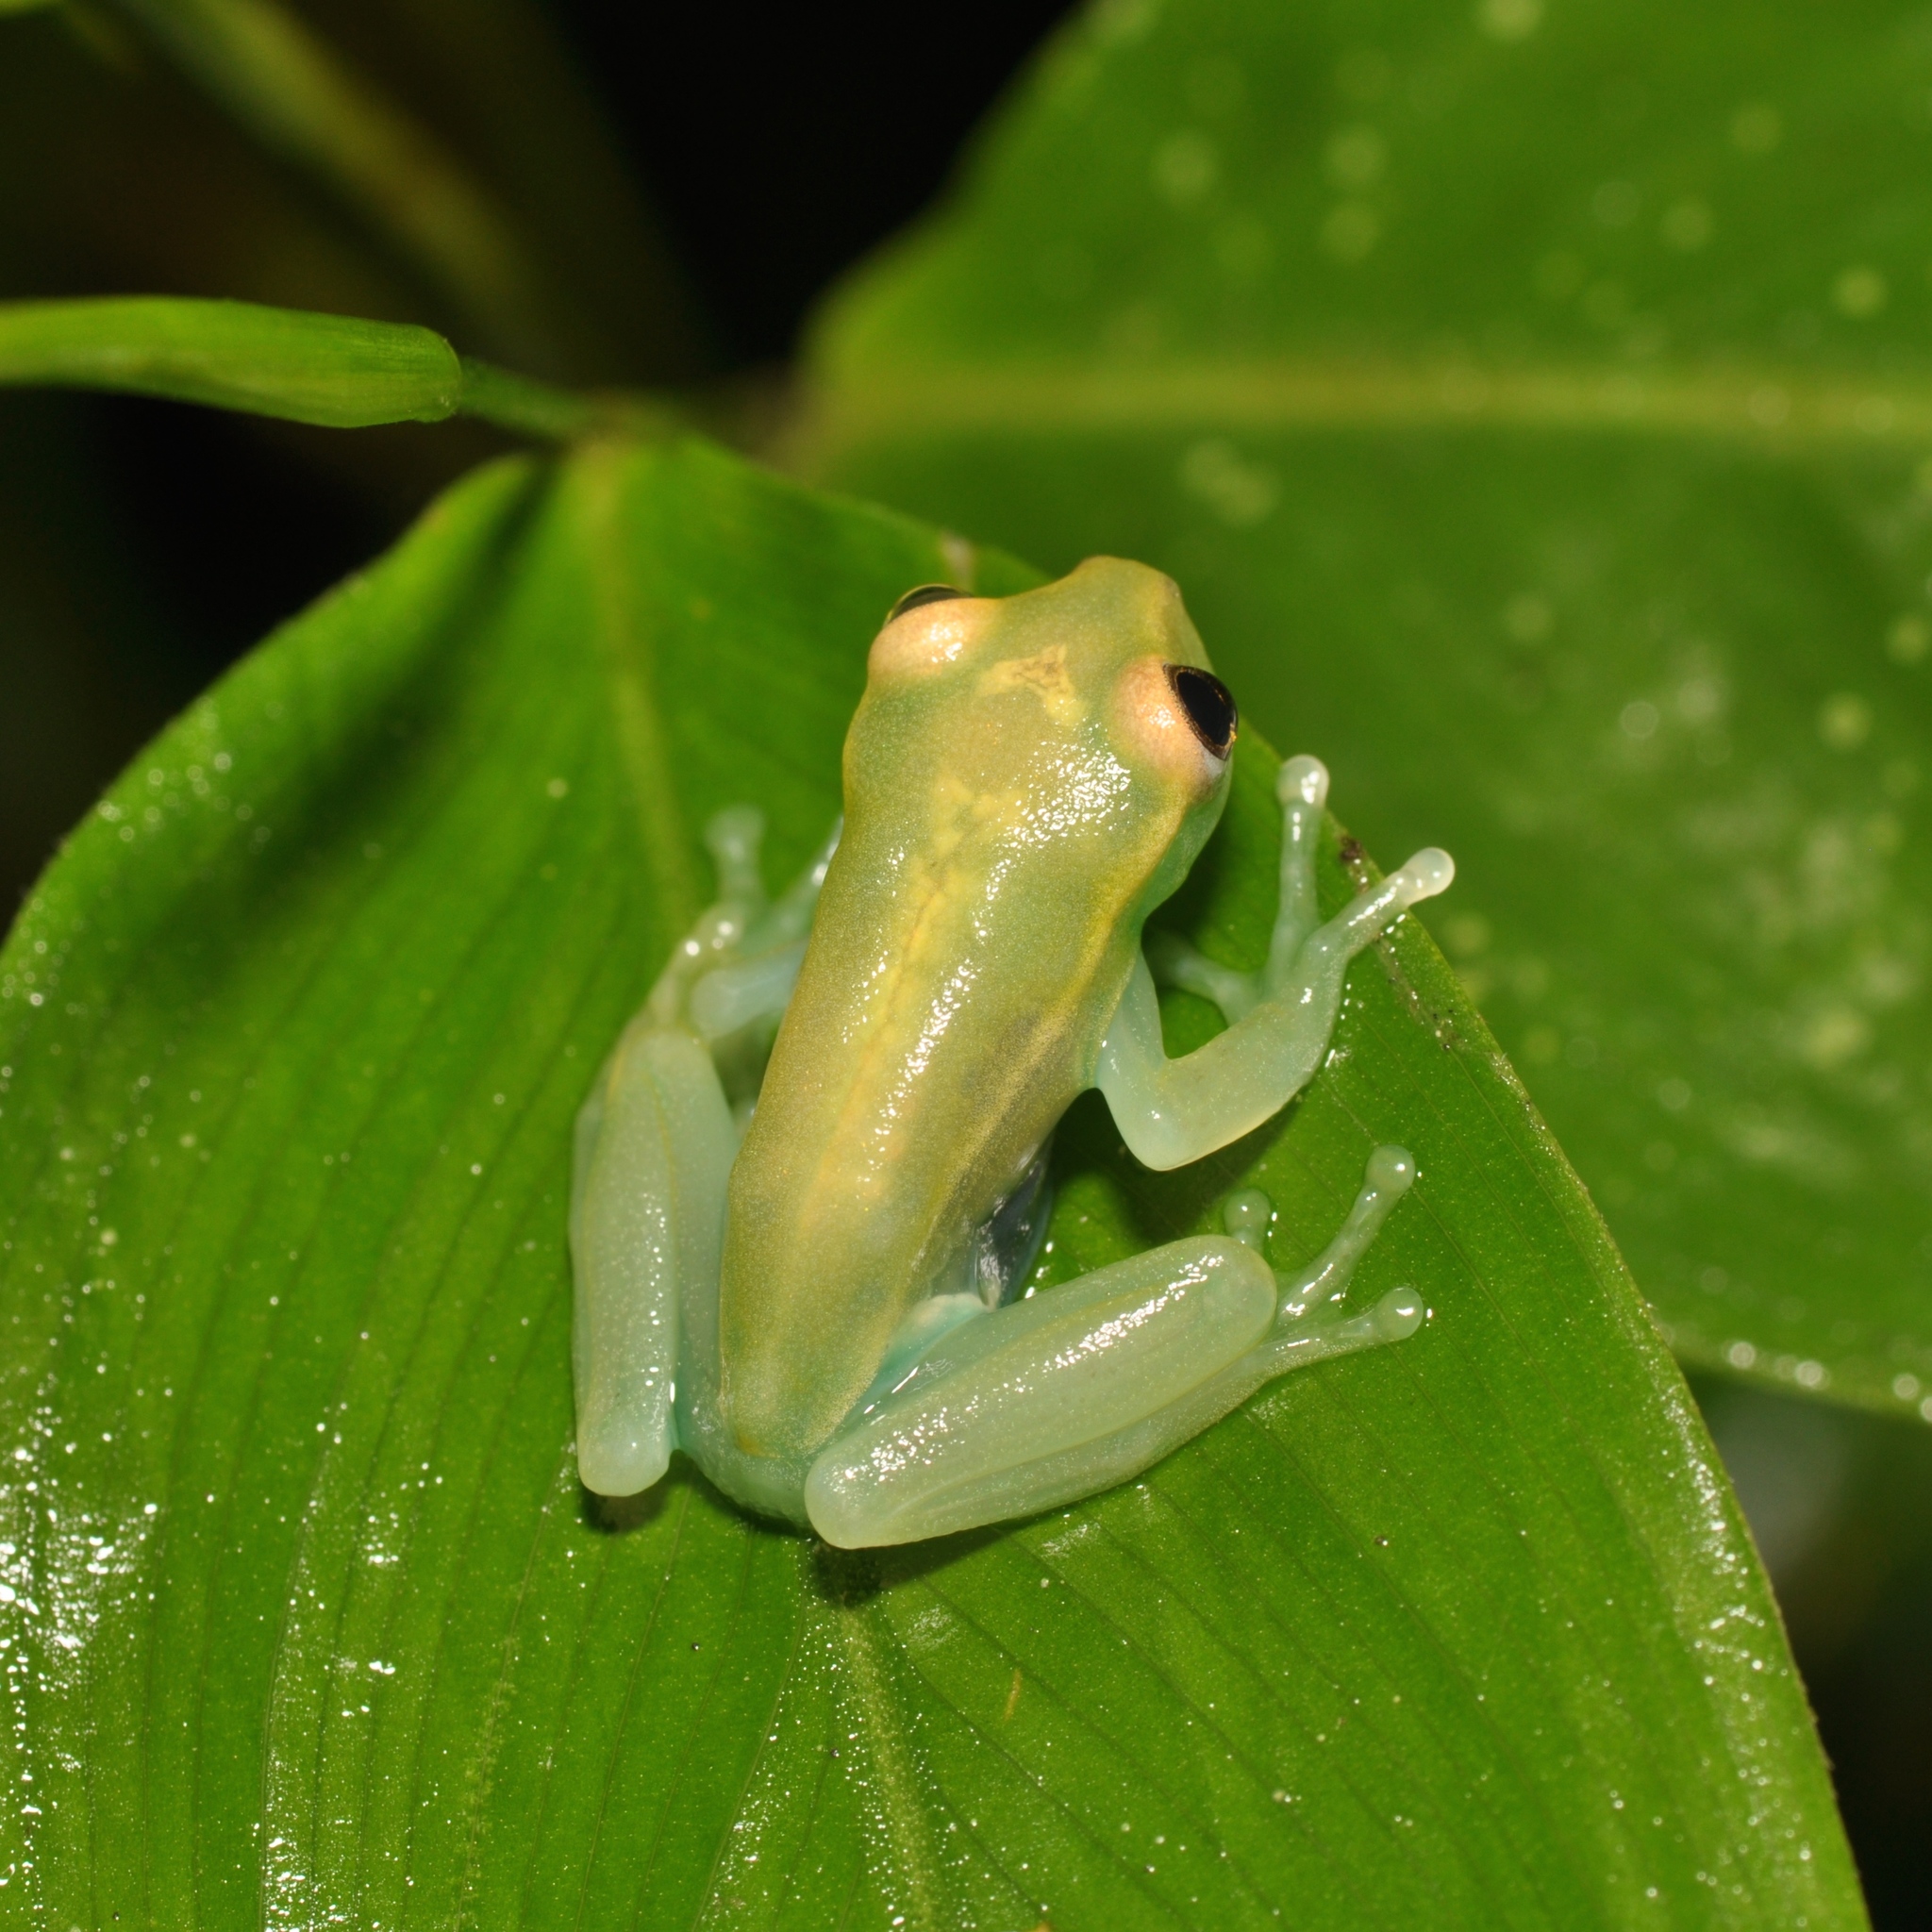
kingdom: Animalia
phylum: Chordata
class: Amphibia
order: Anura
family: Hylidae
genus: Boana
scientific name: Boana cinerascens
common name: Demerara falls treefrog
